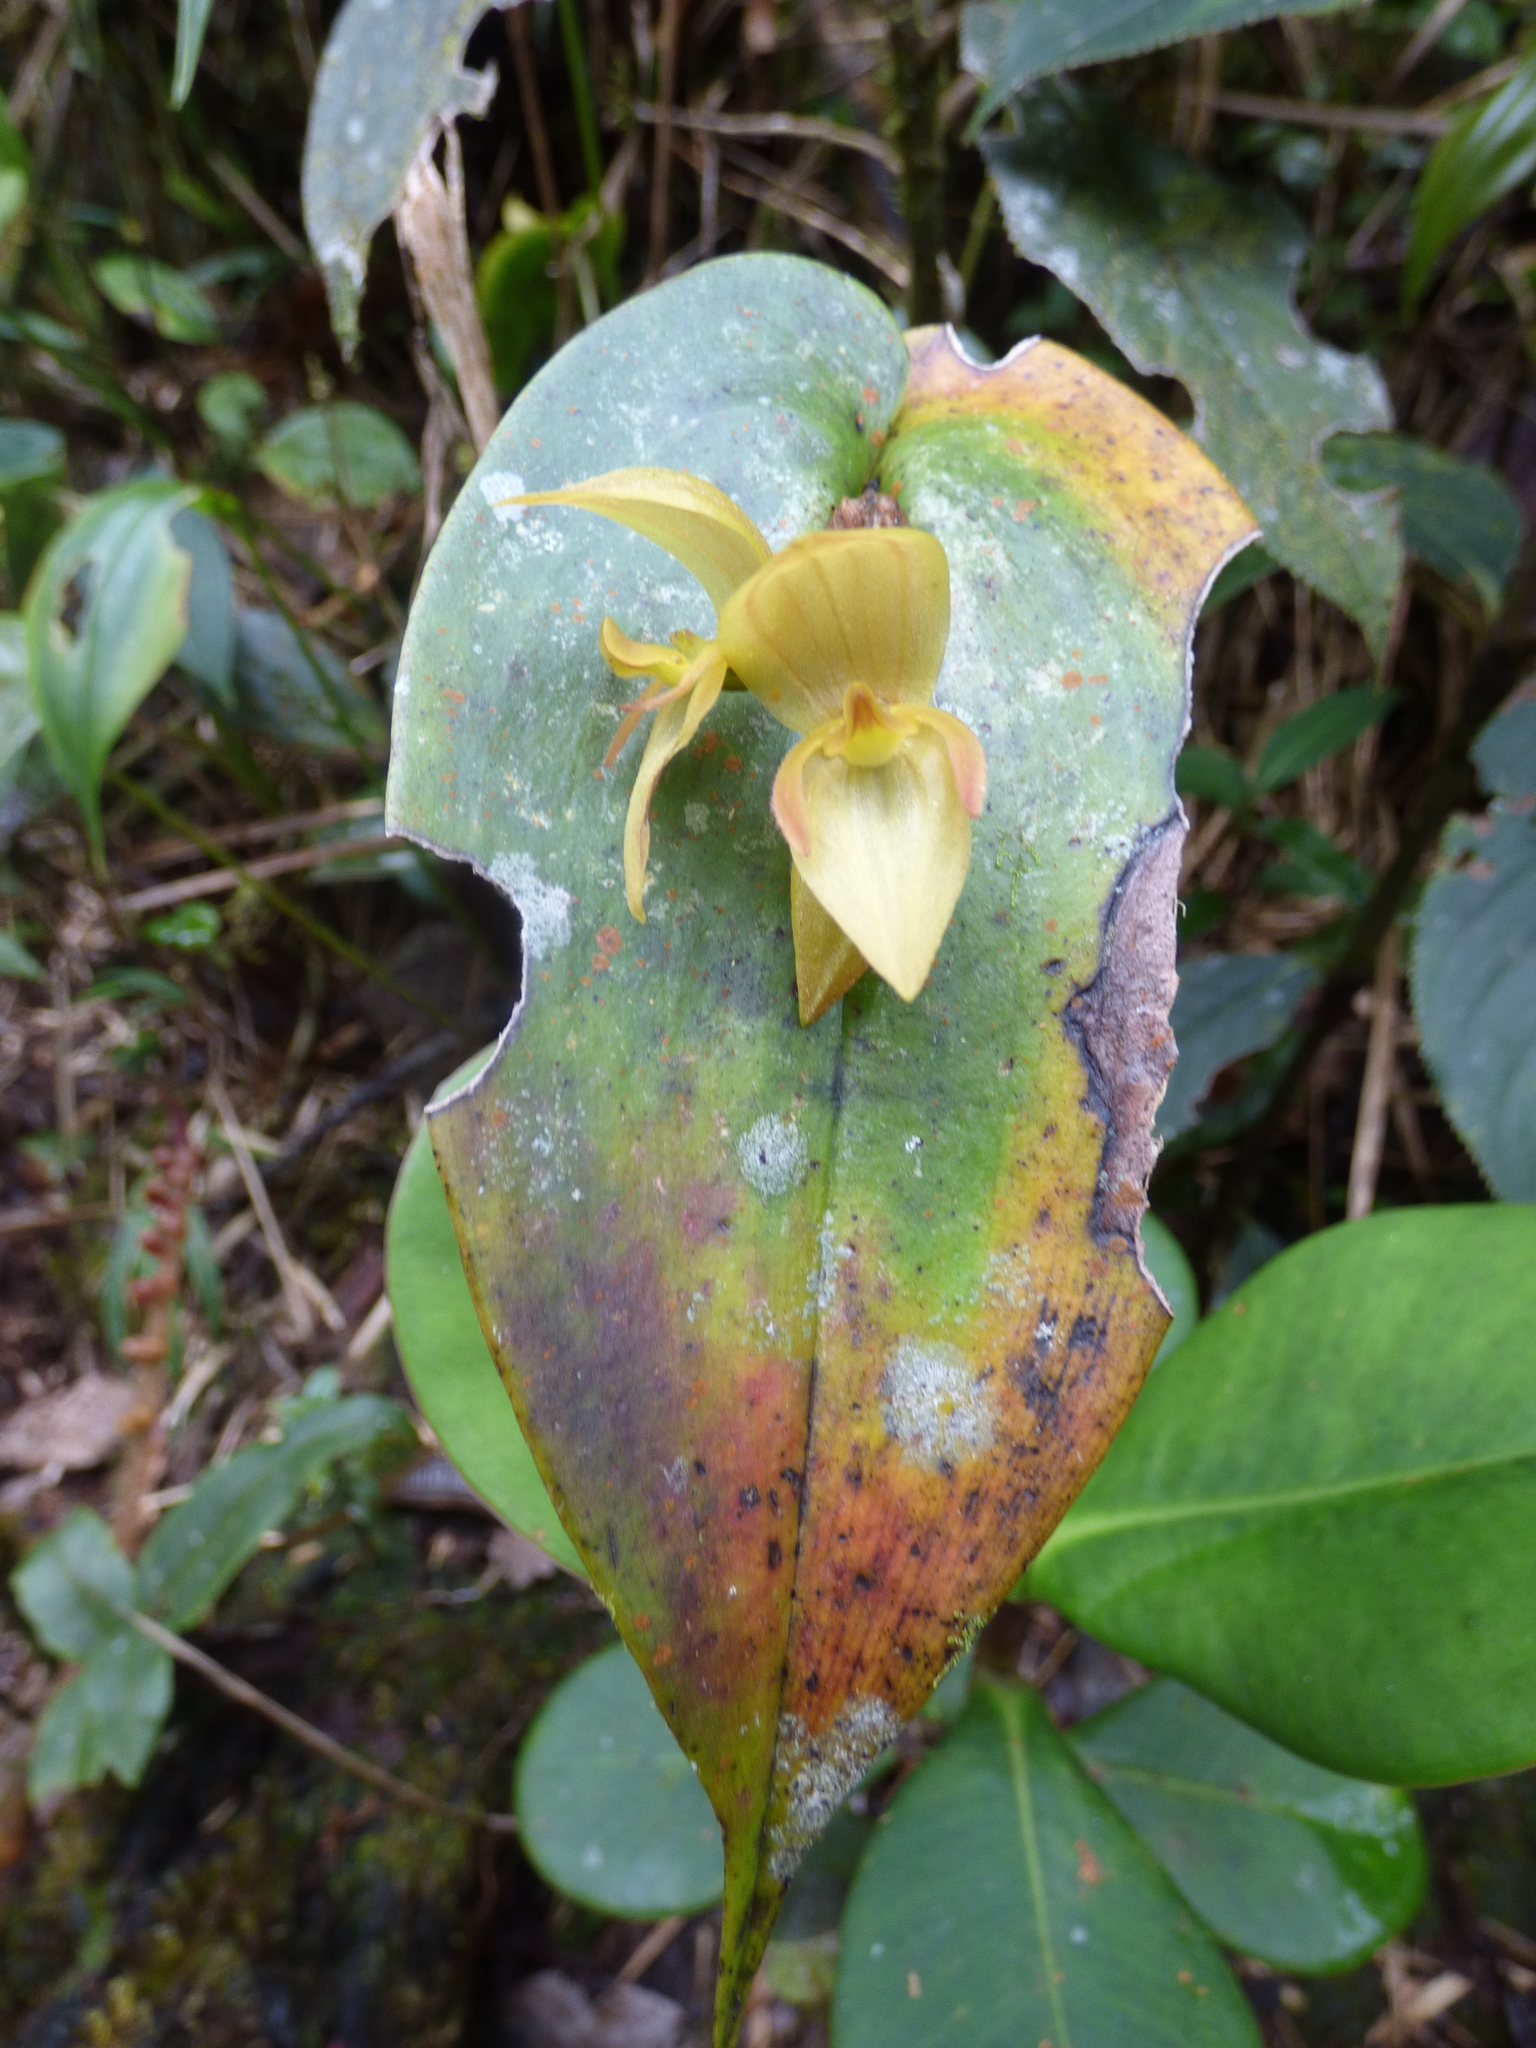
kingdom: Plantae
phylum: Tracheophyta
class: Liliopsida
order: Asparagales
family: Orchidaceae
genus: Pleurothallis
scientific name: Pleurothallis siphoglossa
